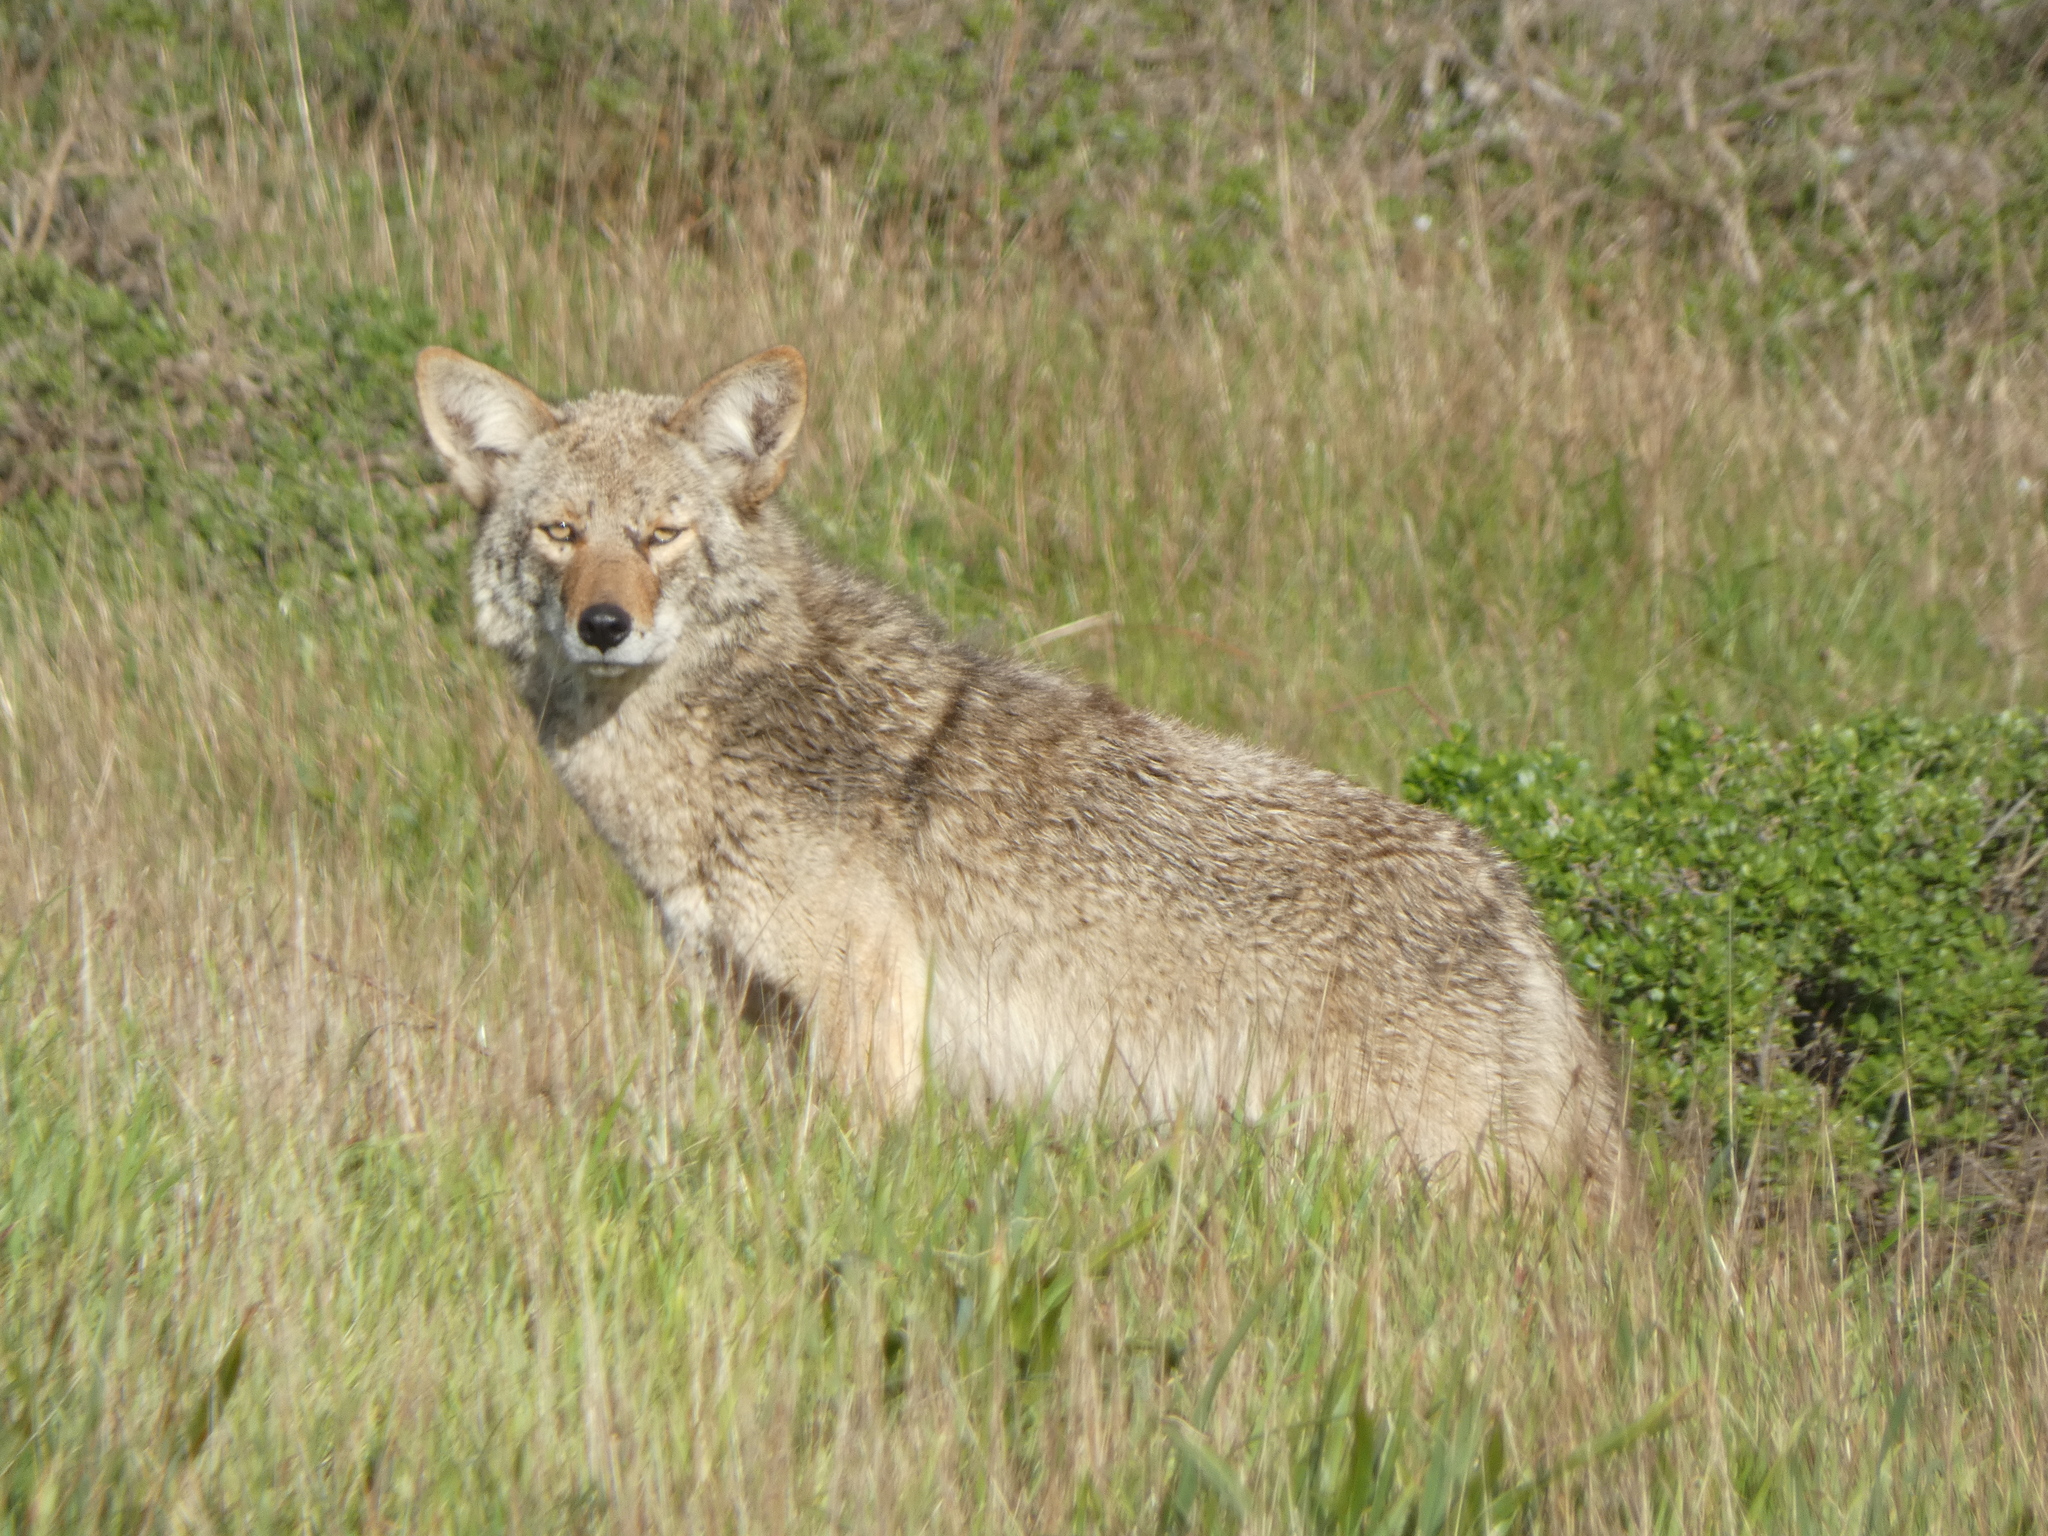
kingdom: Animalia
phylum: Chordata
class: Mammalia
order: Carnivora
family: Canidae
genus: Canis
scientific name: Canis latrans
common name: Coyote
